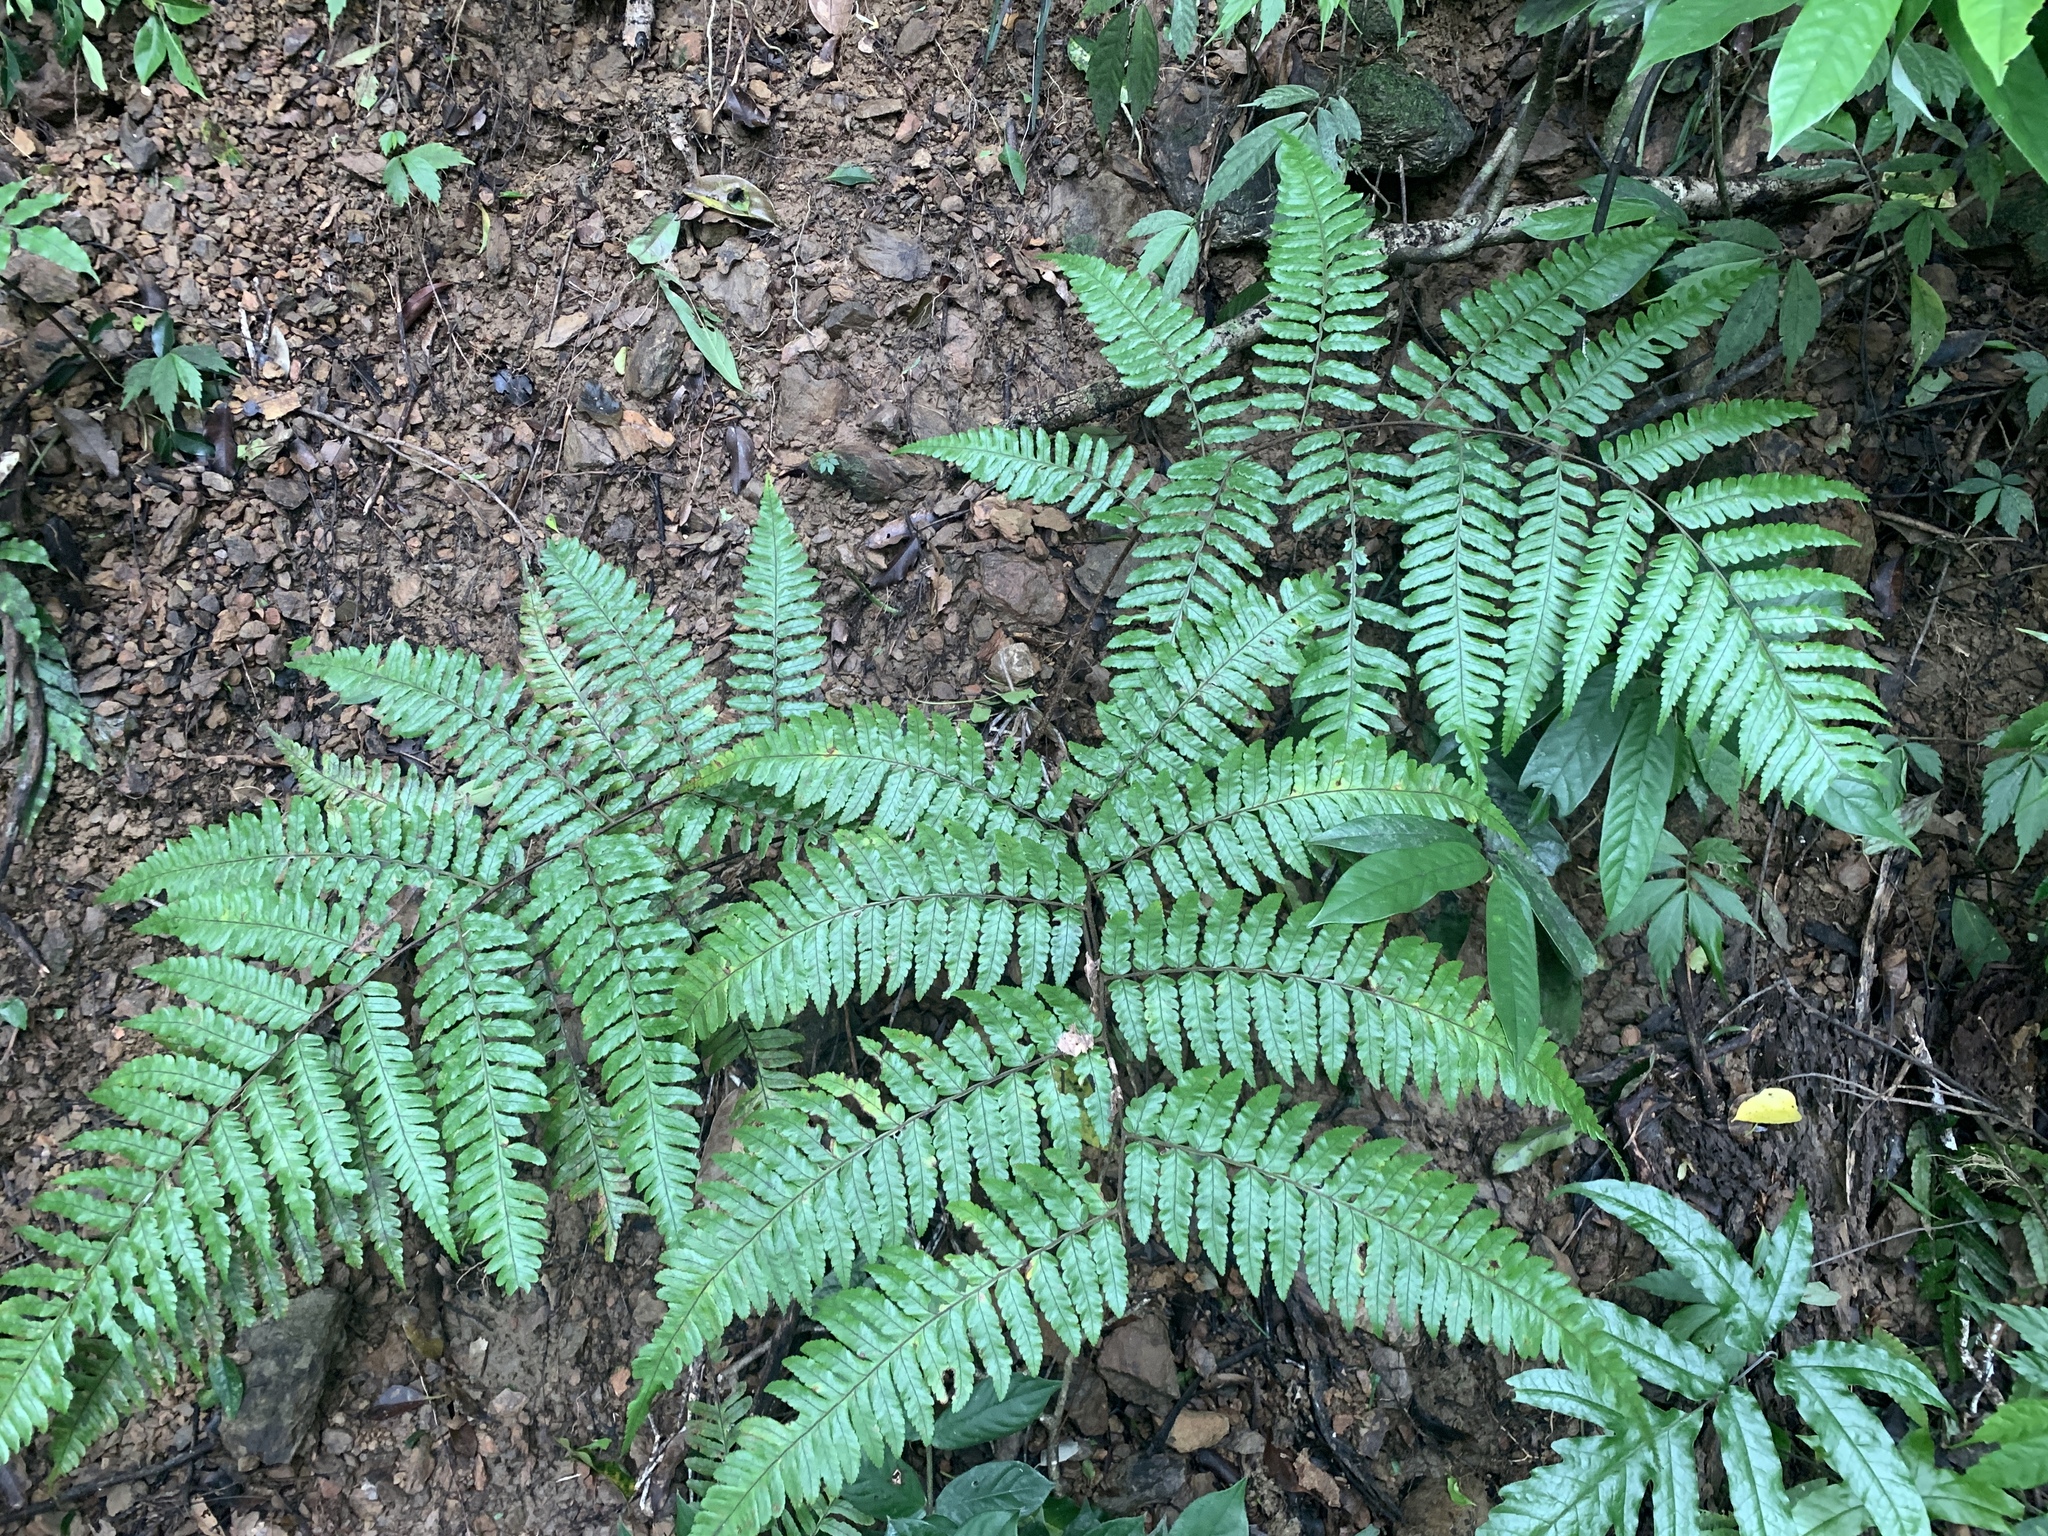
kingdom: Plantae
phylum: Tracheophyta
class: Polypodiopsida
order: Cyatheales
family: Cyatheaceae
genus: Gymnosphaera
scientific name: Gymnosphaera metteniana
